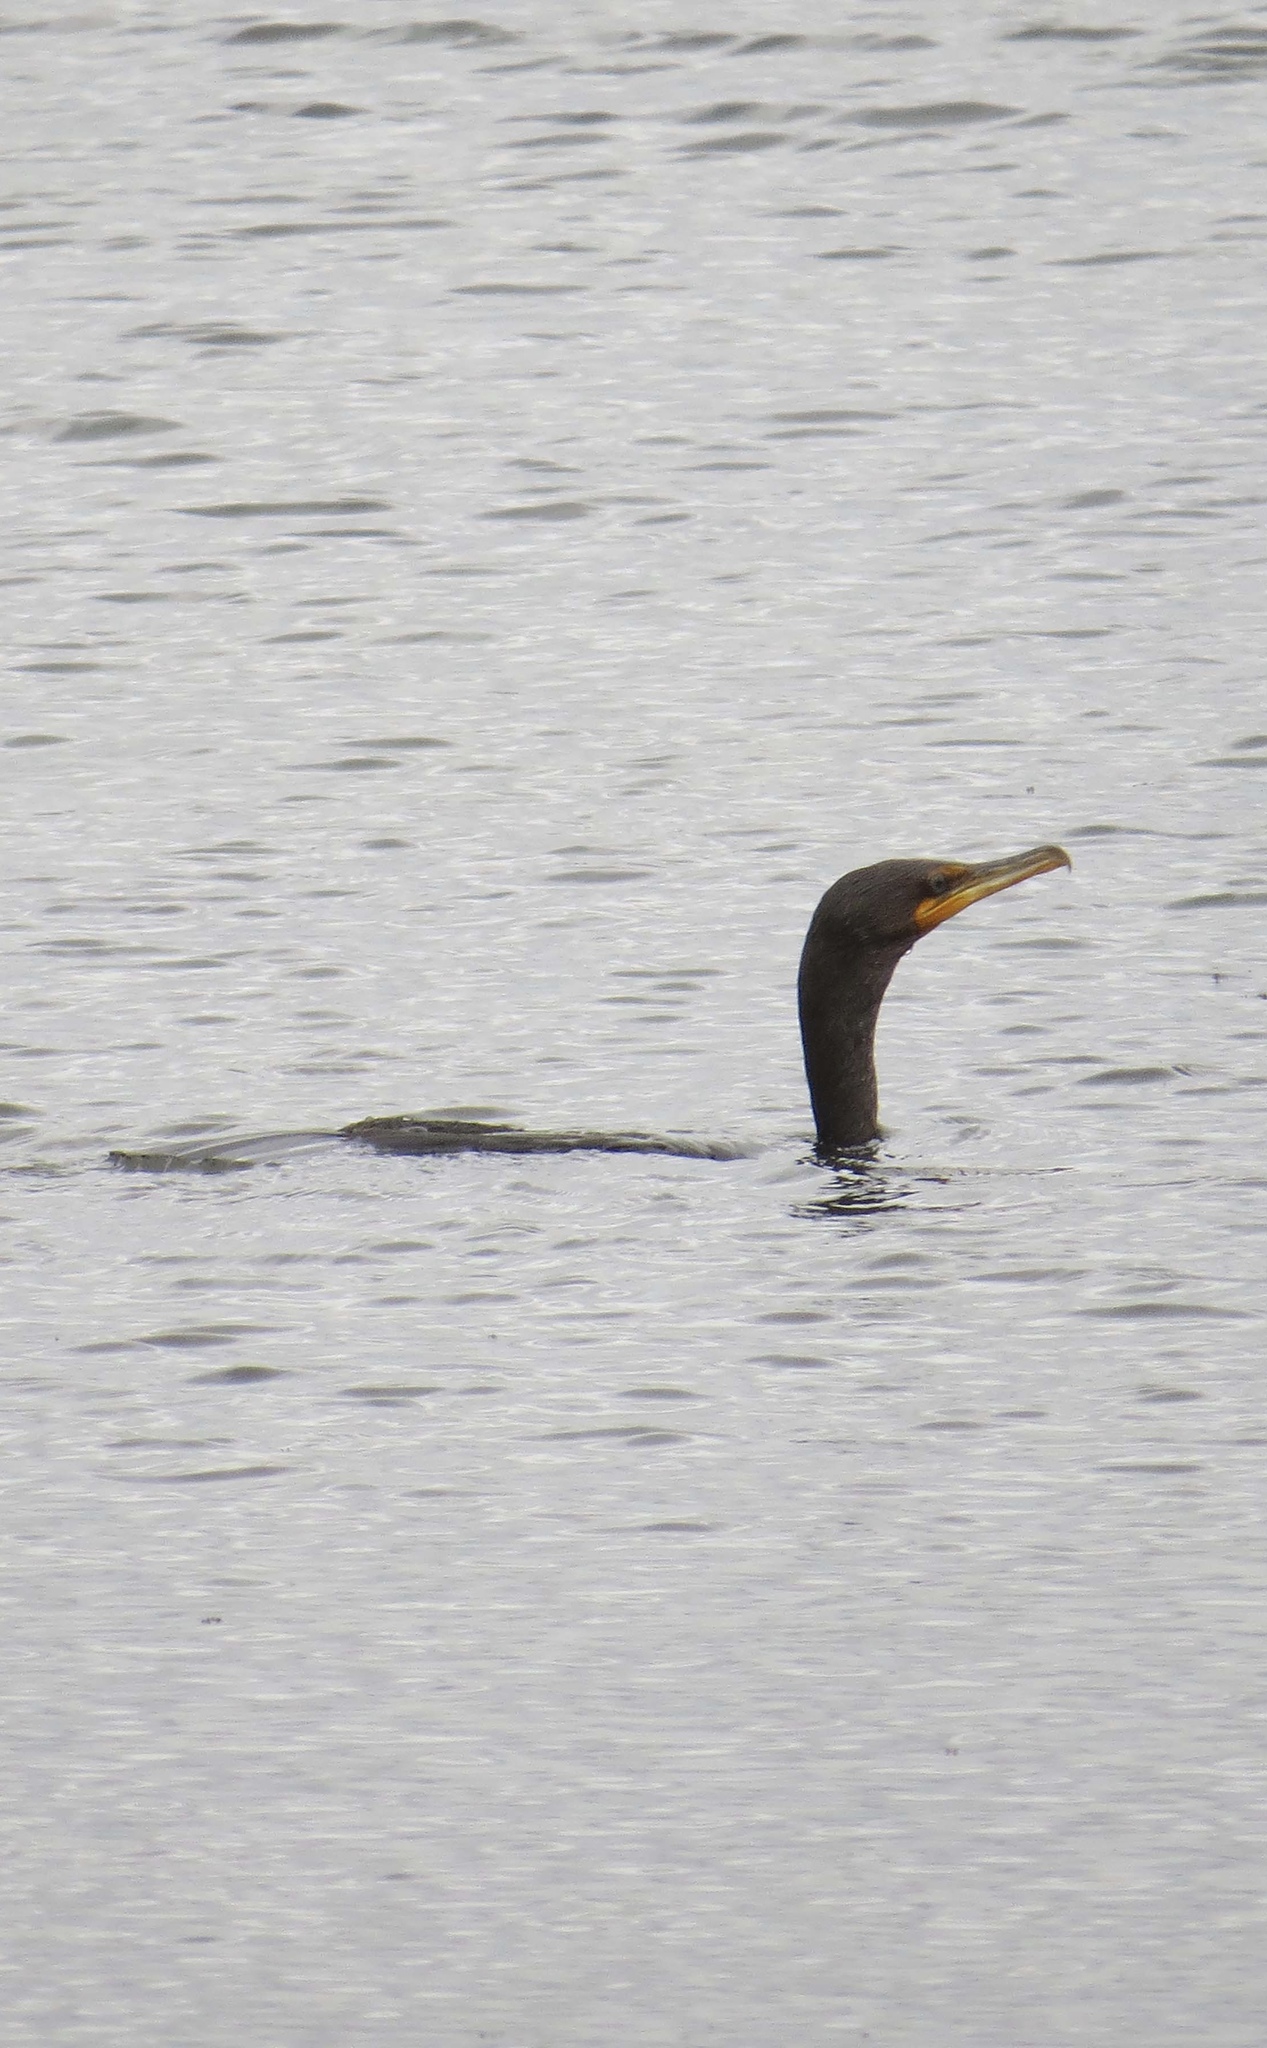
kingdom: Animalia
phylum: Chordata
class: Aves
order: Suliformes
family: Phalacrocoracidae
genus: Phalacrocorax
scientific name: Phalacrocorax auritus
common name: Double-crested cormorant
